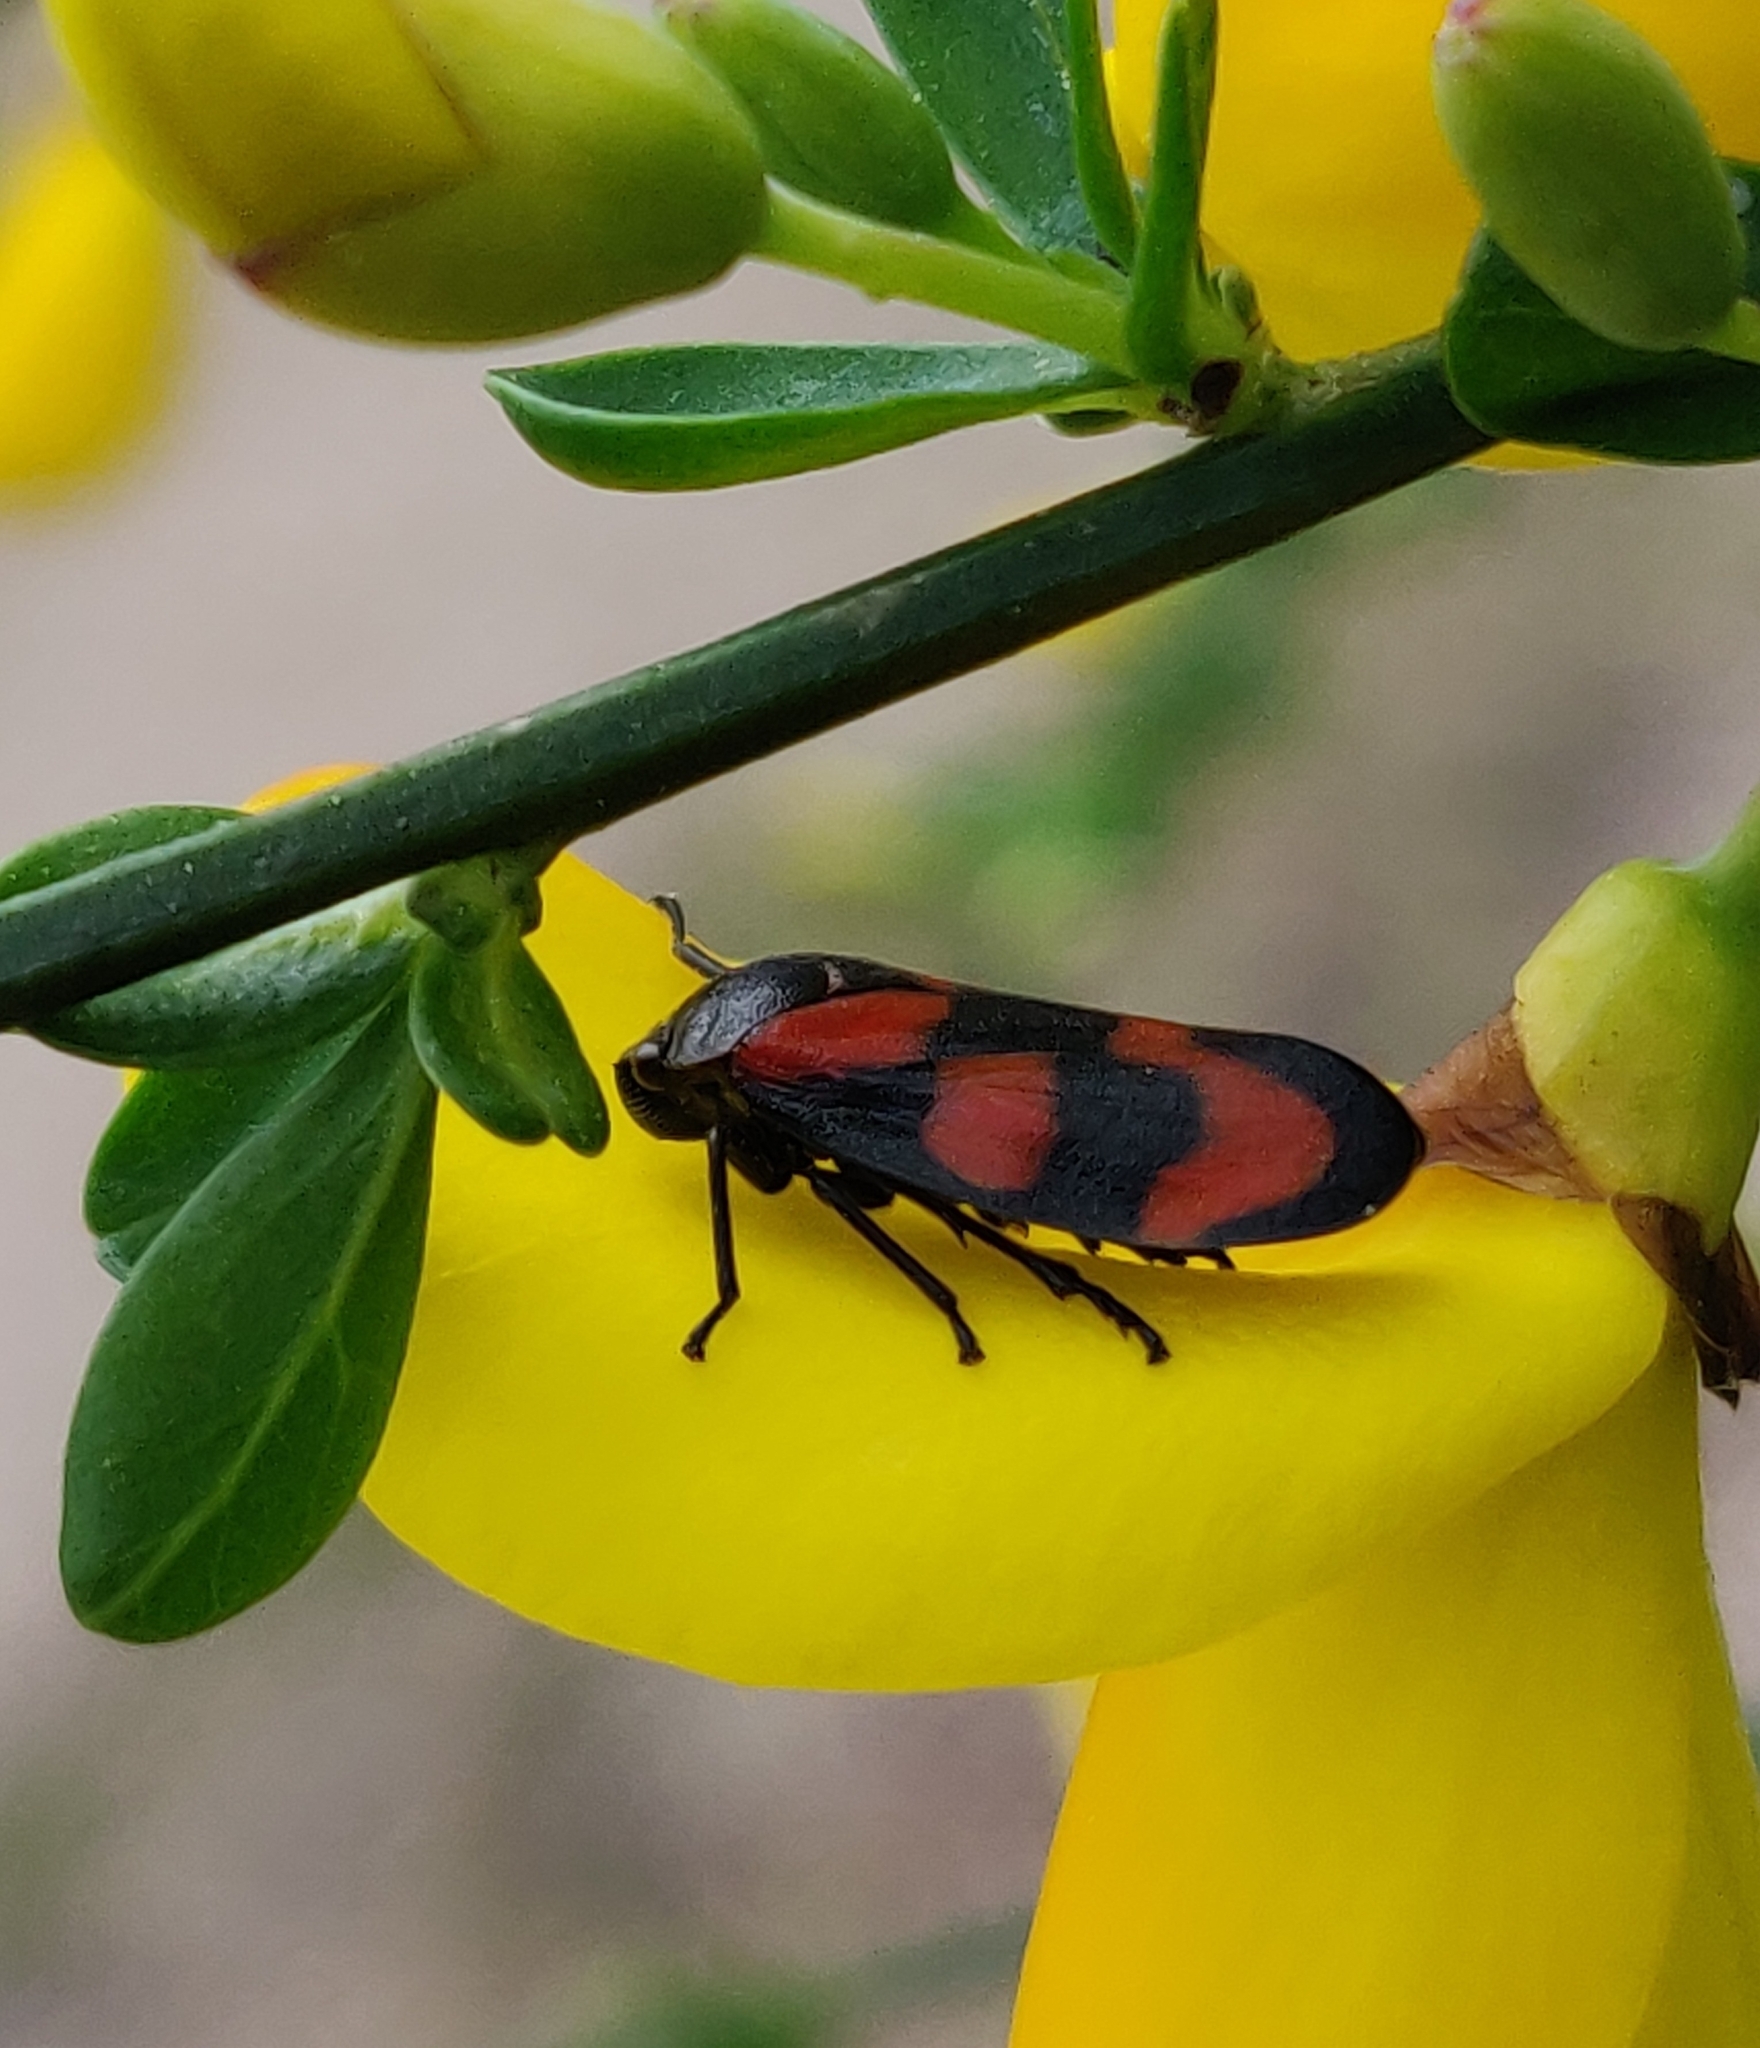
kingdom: Animalia
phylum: Arthropoda
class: Insecta
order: Hemiptera
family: Cercopidae
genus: Cercopis
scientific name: Cercopis vulnerata
